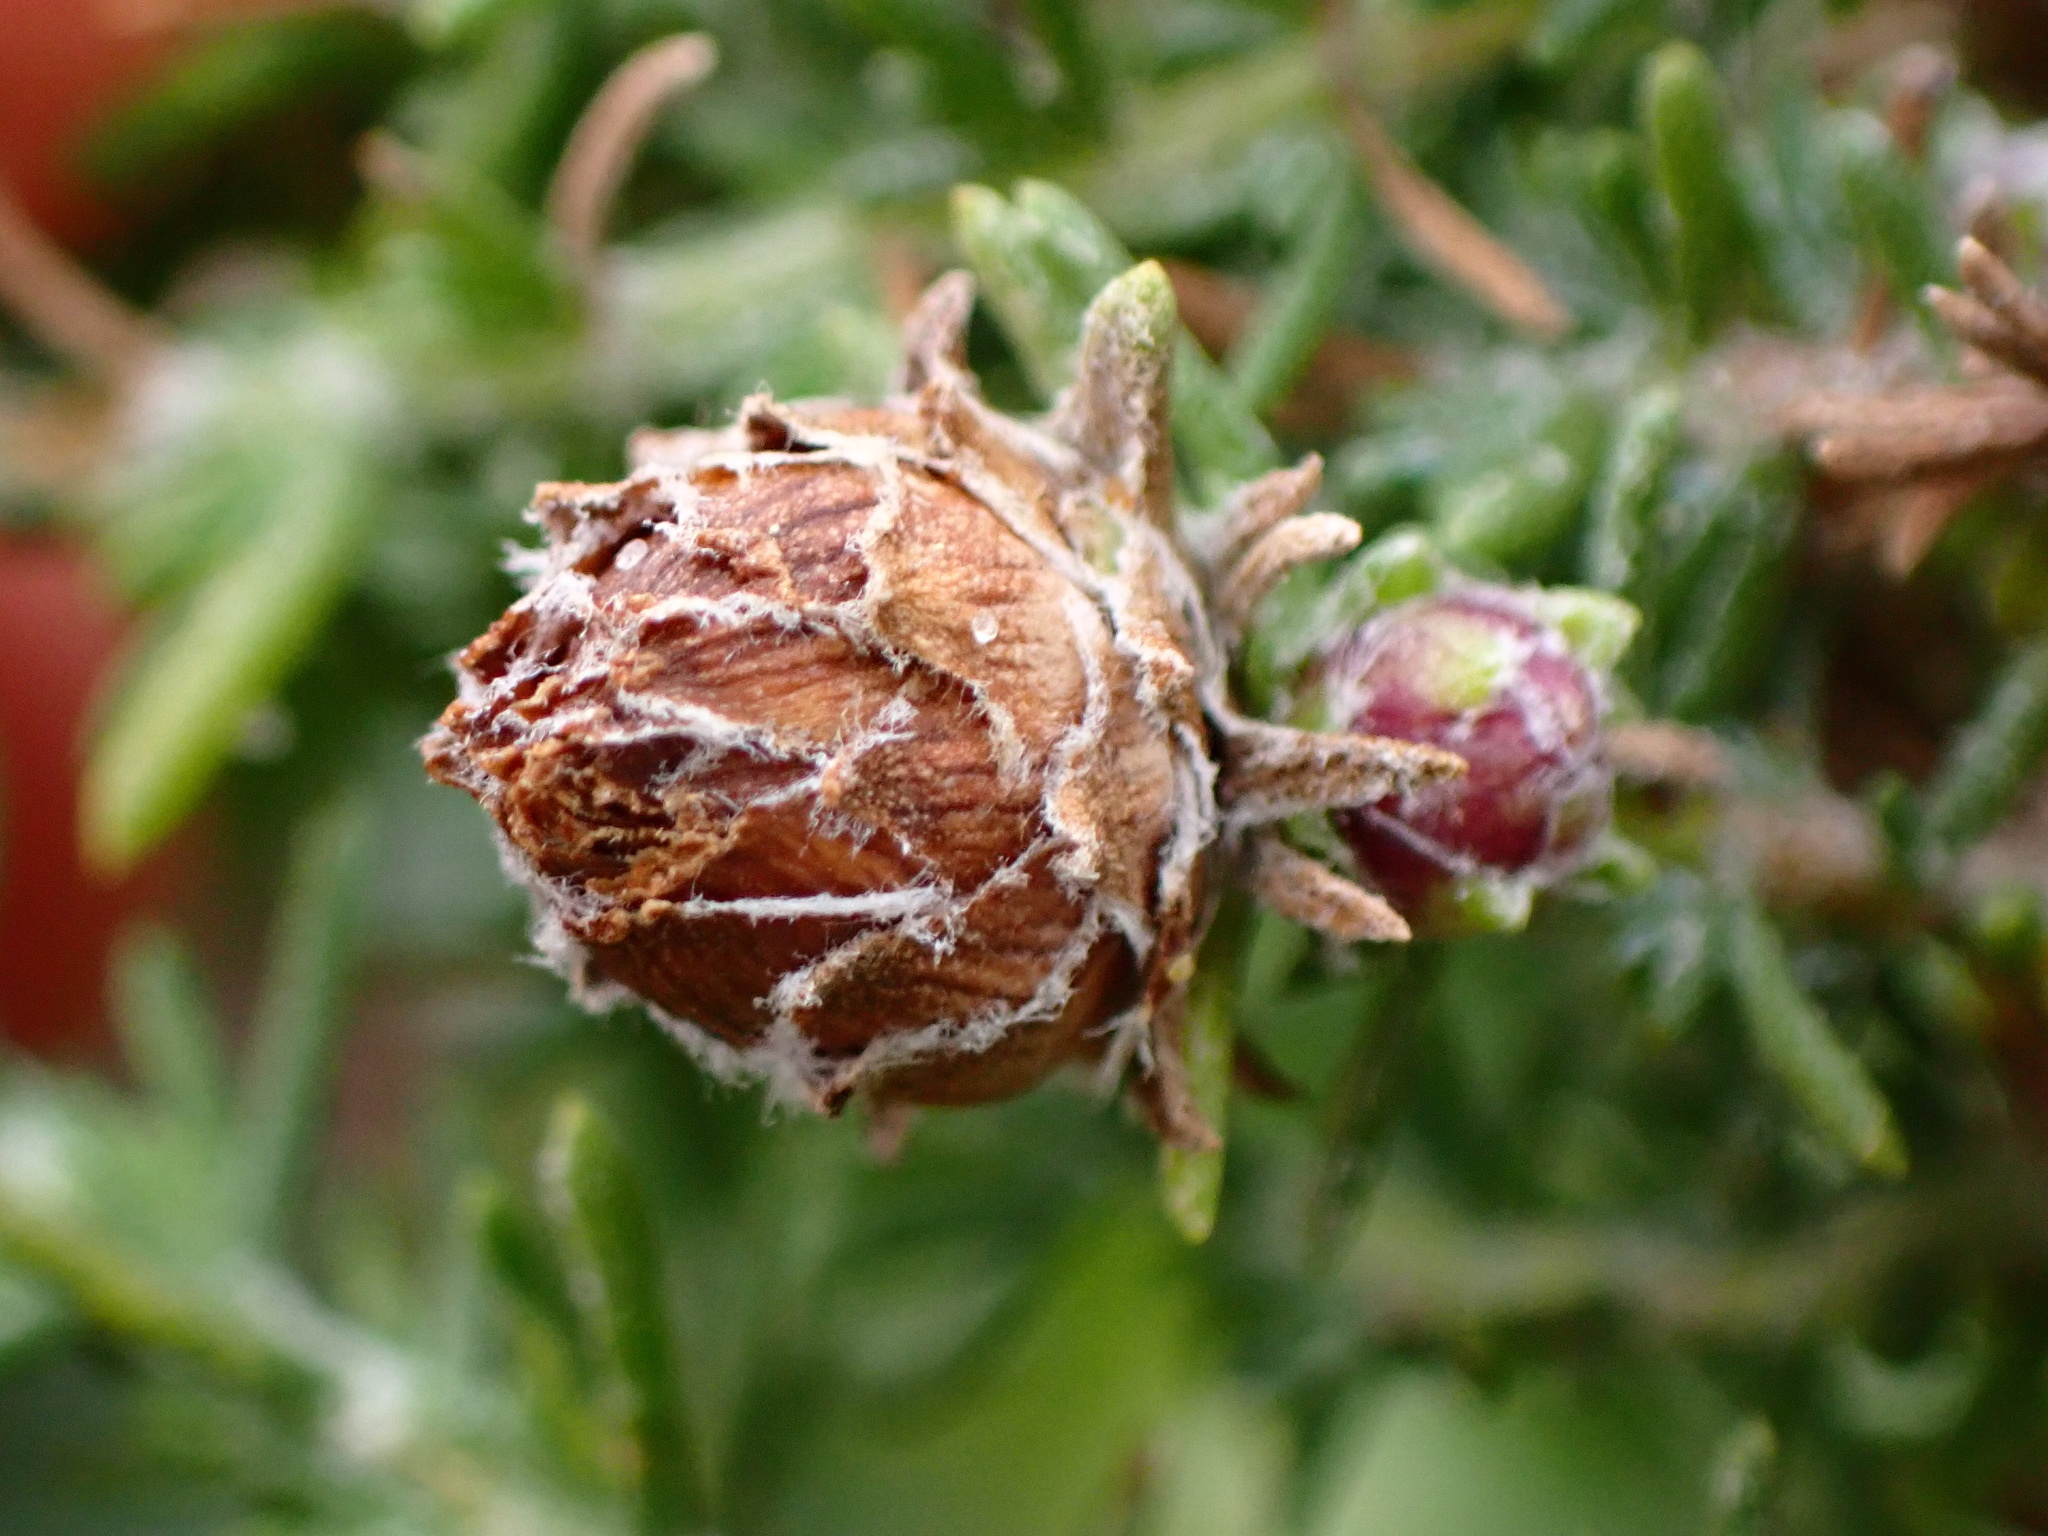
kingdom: Animalia
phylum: Arthropoda
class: Insecta
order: Diptera
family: Cecidomyiidae
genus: Prodiplosis
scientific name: Prodiplosis falcata
